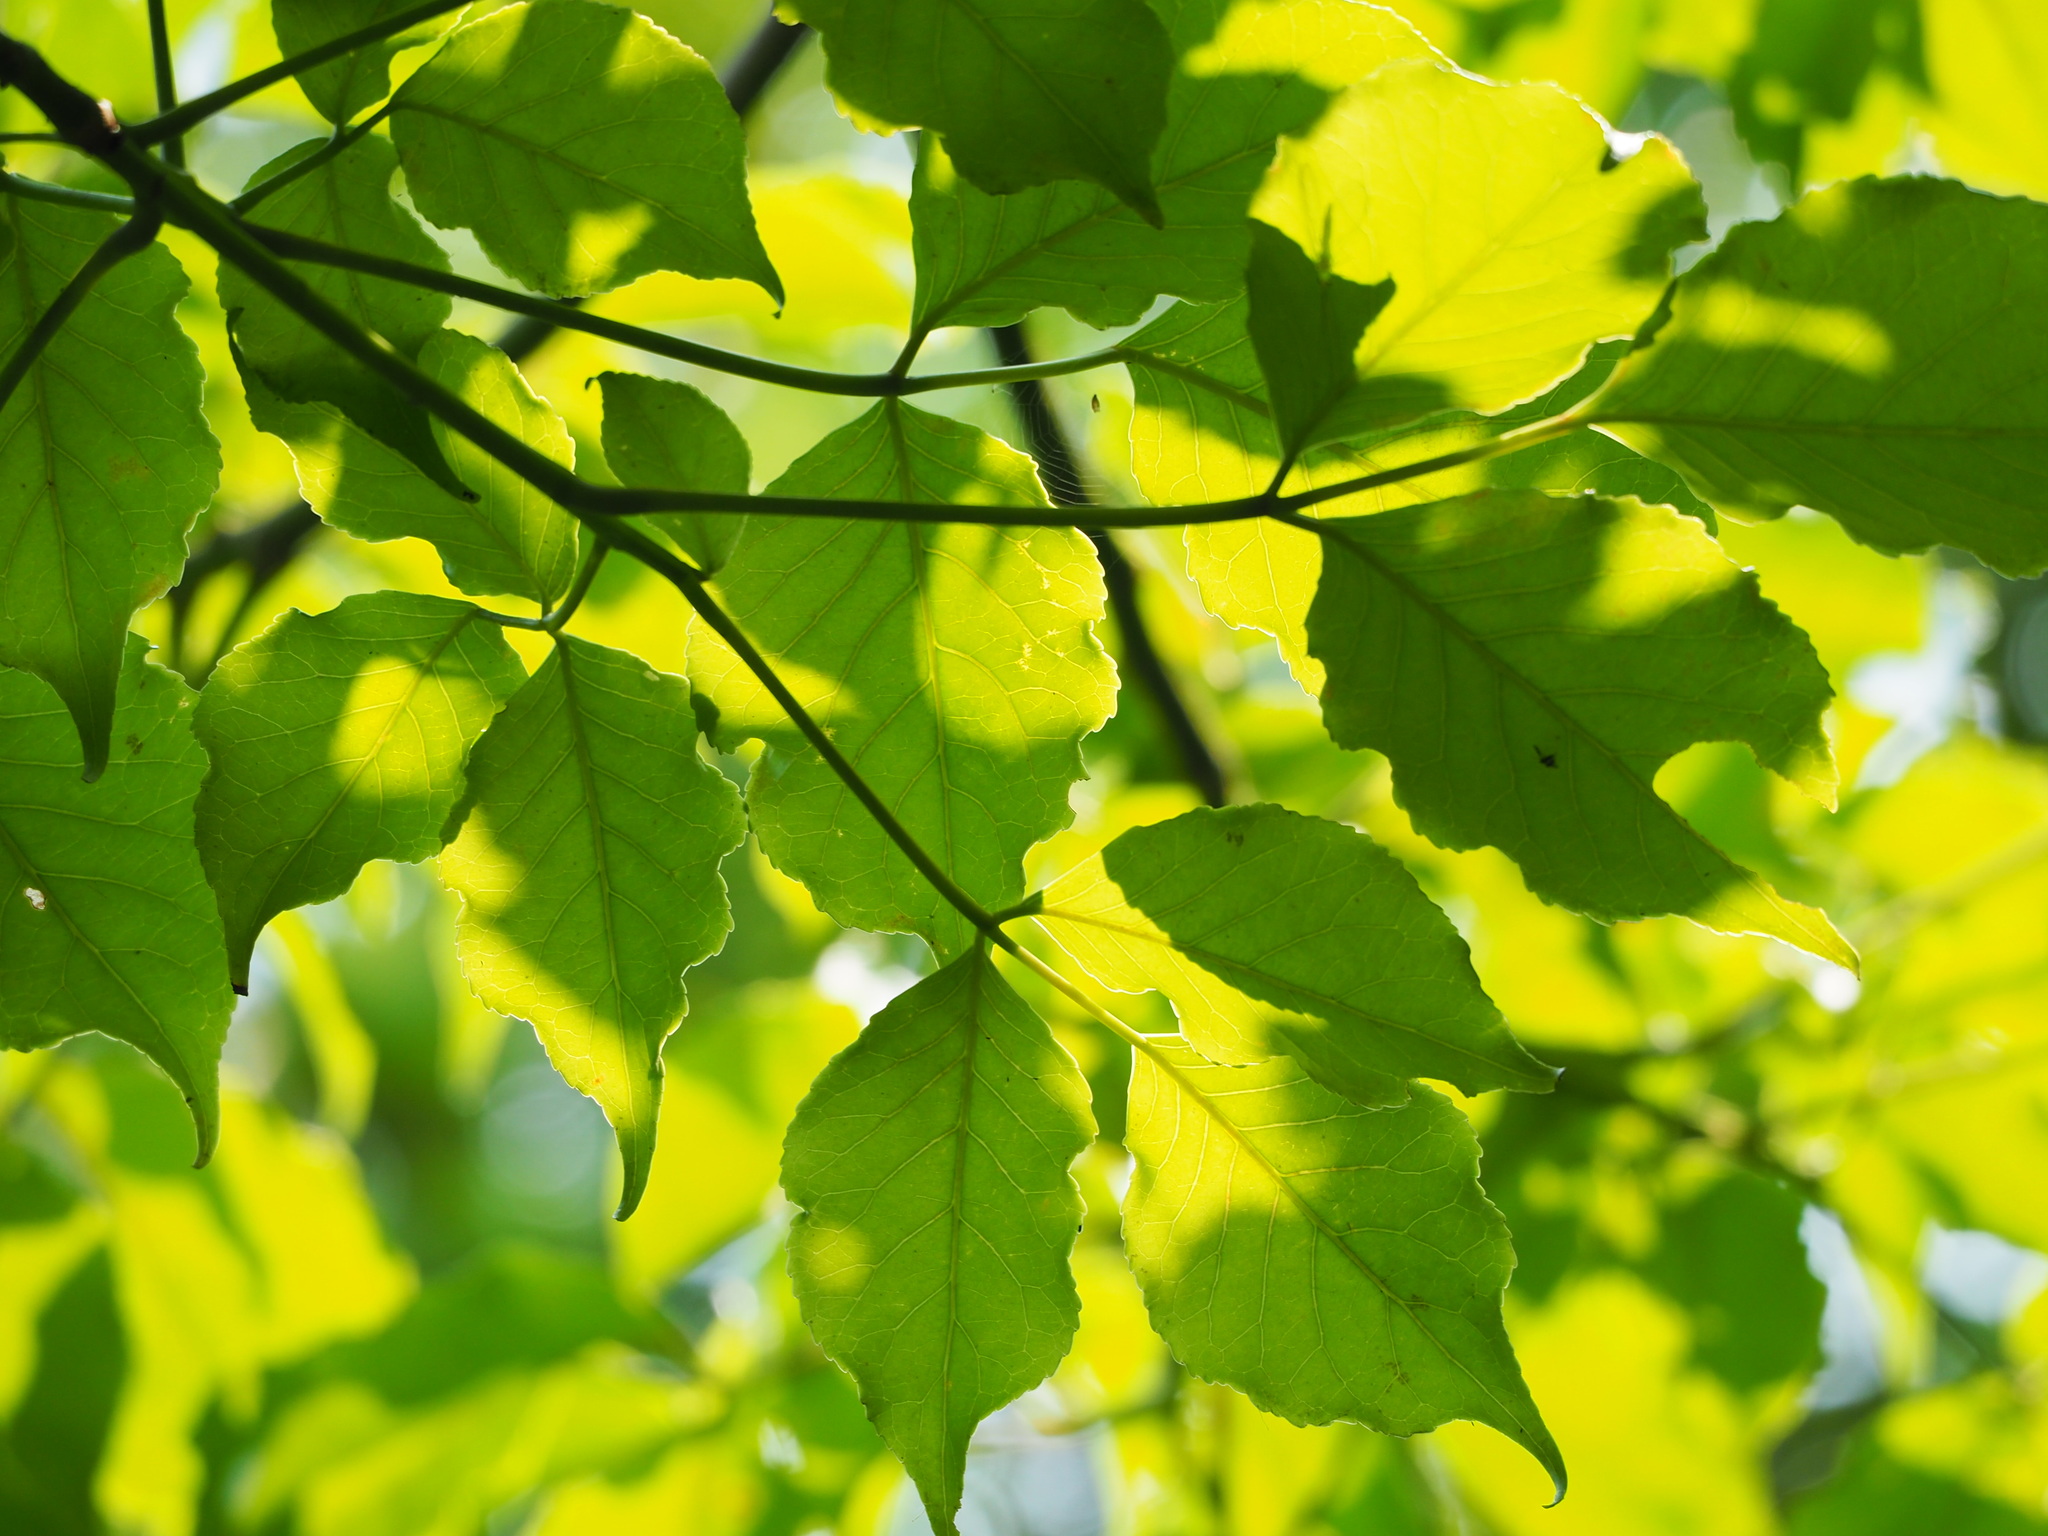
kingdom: Plantae
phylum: Tracheophyta
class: Magnoliopsida
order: Malpighiales
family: Phyllanthaceae
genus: Bischofia
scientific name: Bischofia javanica
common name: Javanese bishopwood
